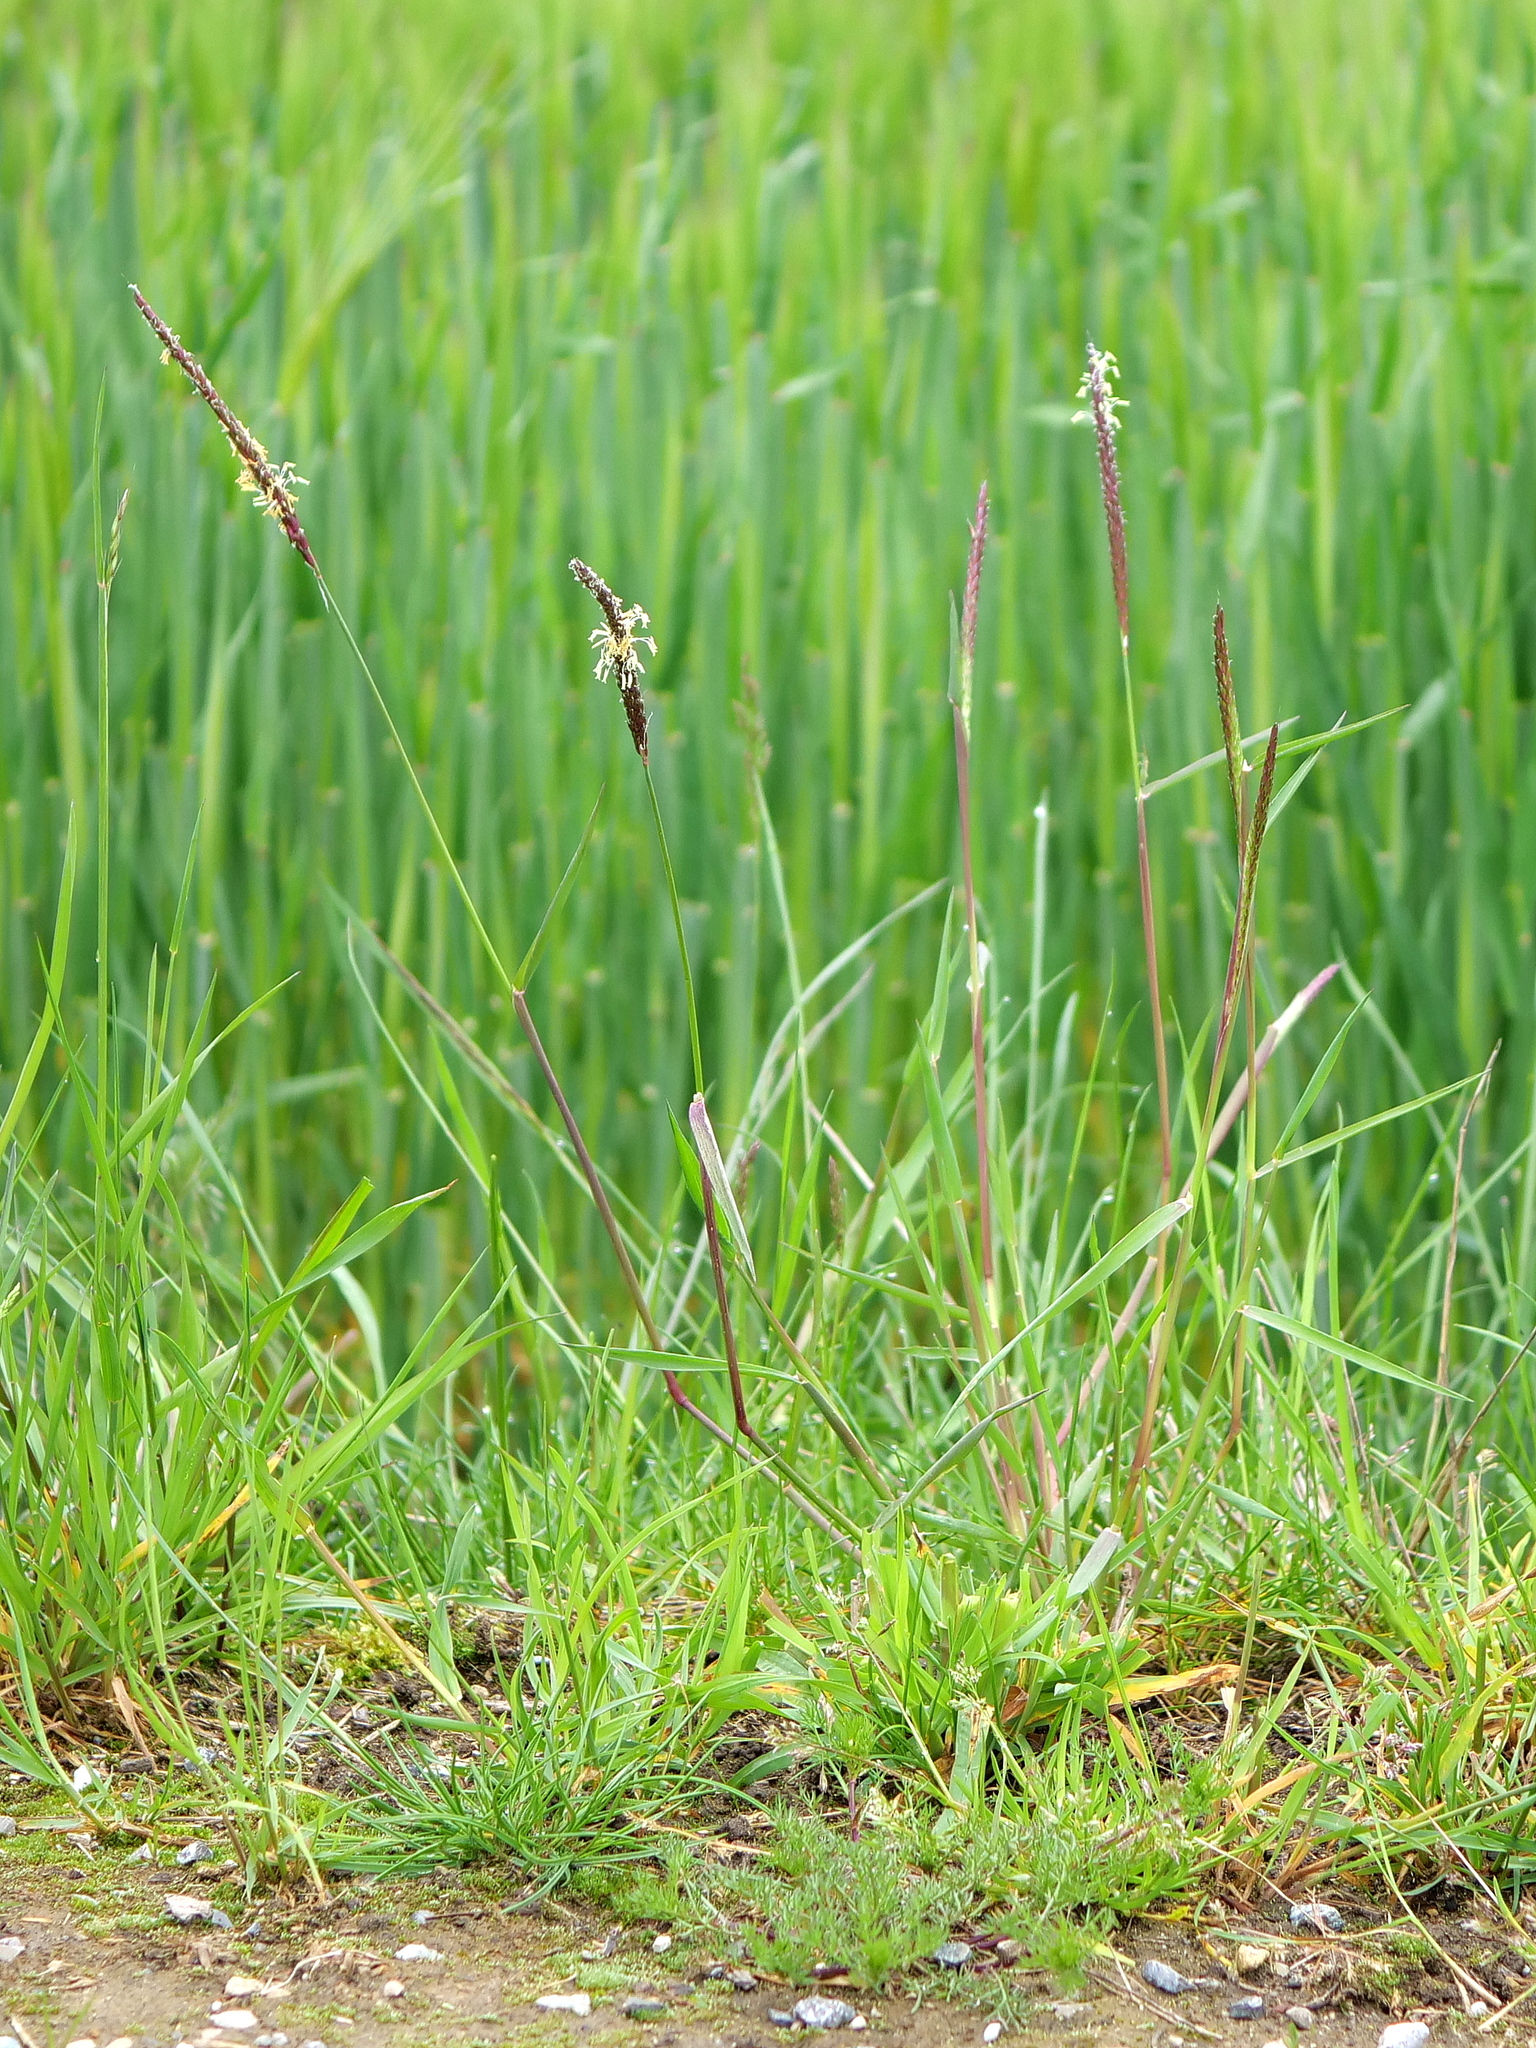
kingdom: Plantae
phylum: Tracheophyta
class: Liliopsida
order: Poales
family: Poaceae
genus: Alopecurus
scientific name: Alopecurus myosuroides
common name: Black-grass
